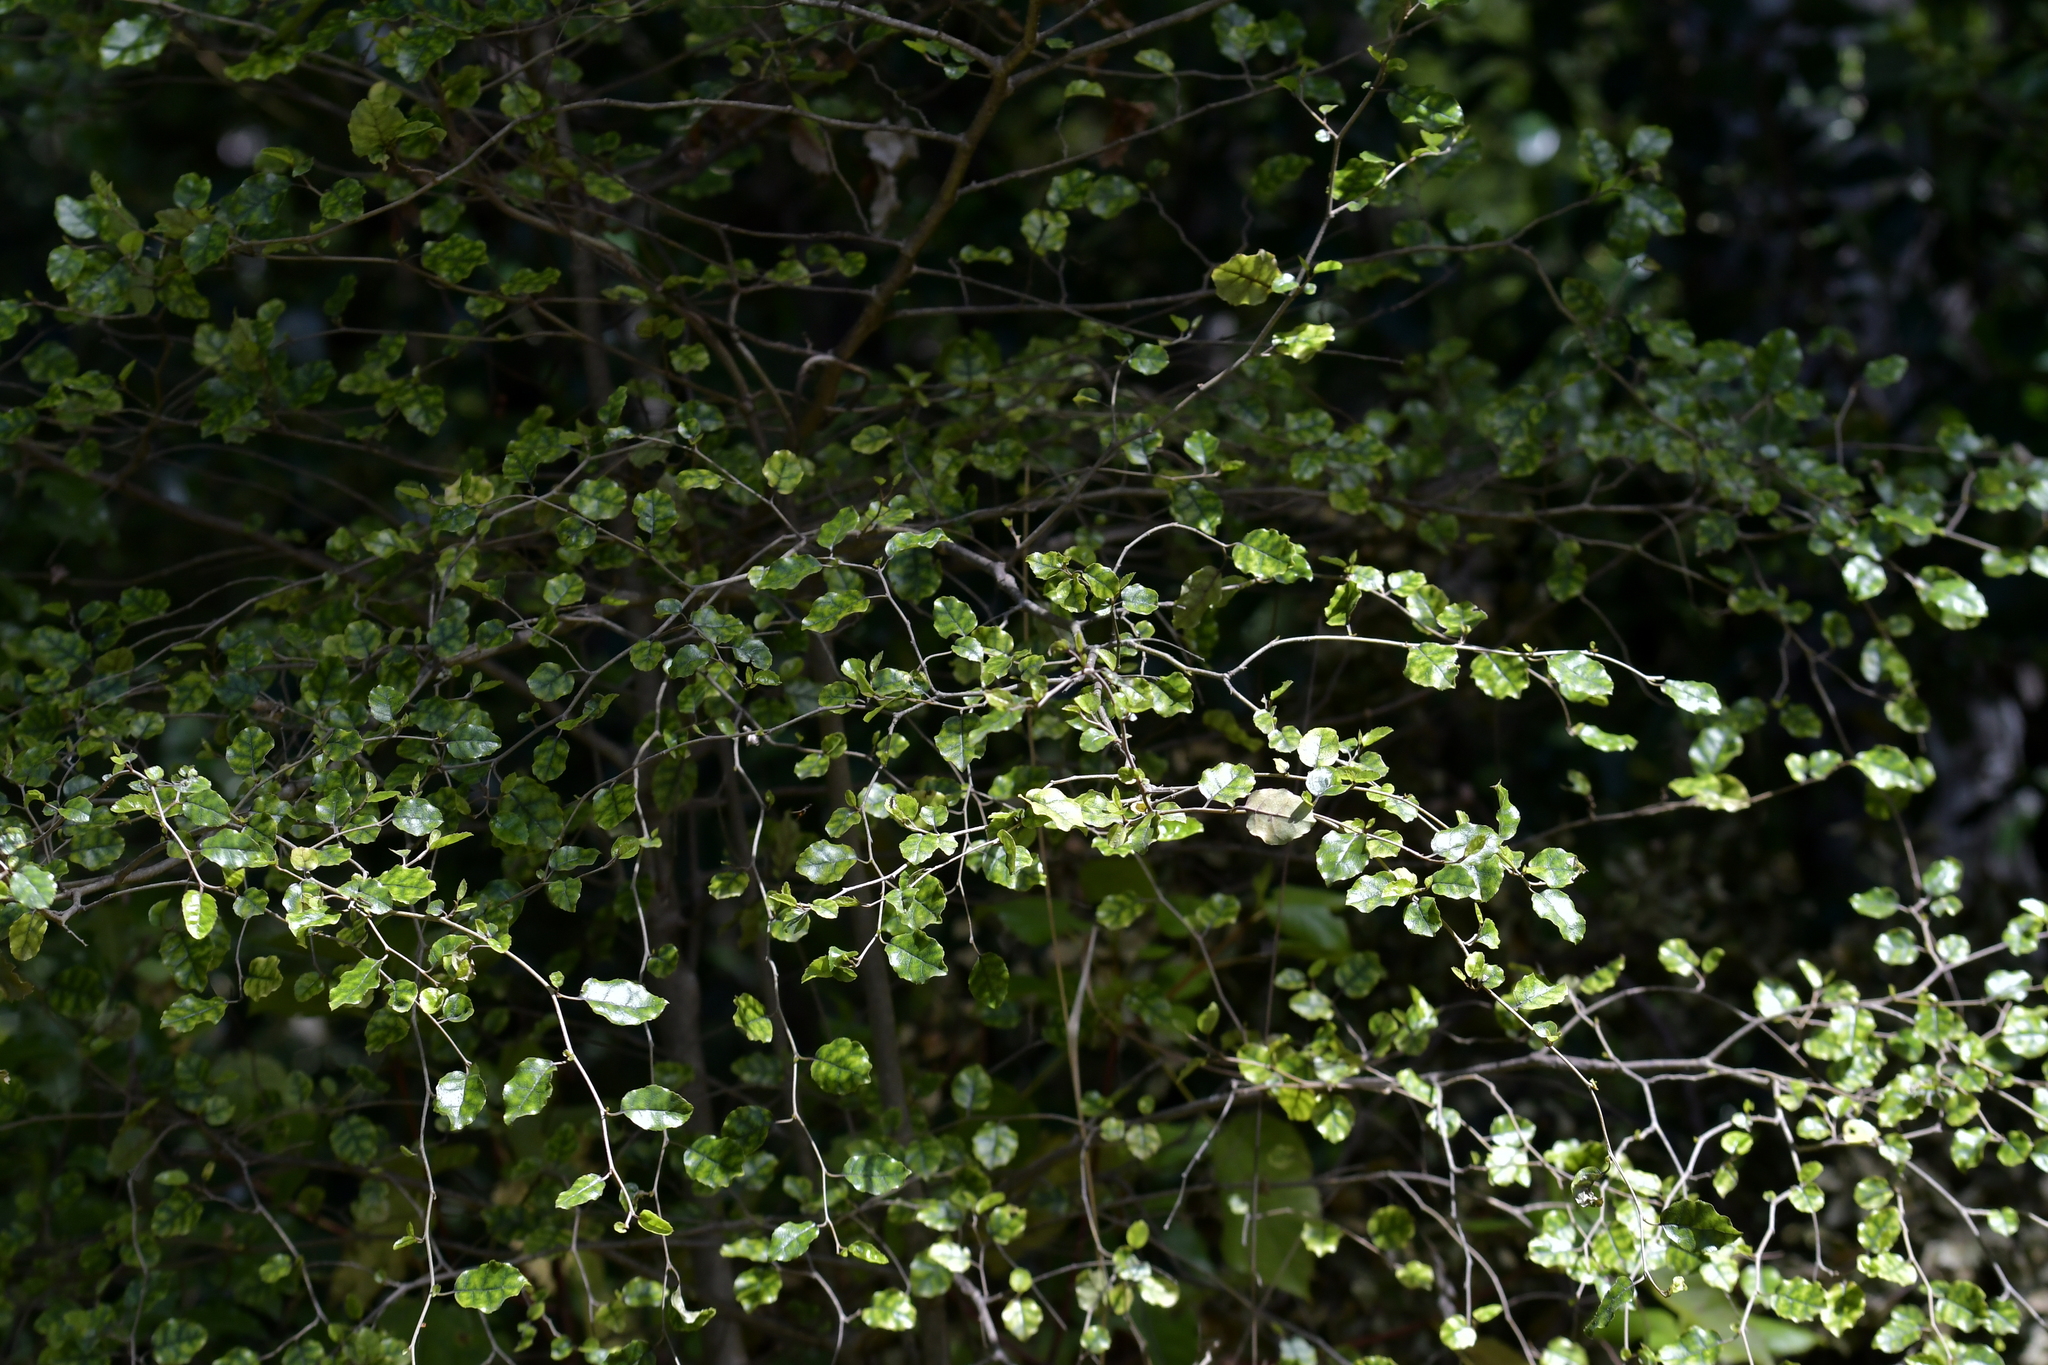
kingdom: Plantae
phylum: Tracheophyta
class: Magnoliopsida
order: Asterales
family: Rousseaceae
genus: Carpodetus
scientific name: Carpodetus serratus
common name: White mapau
